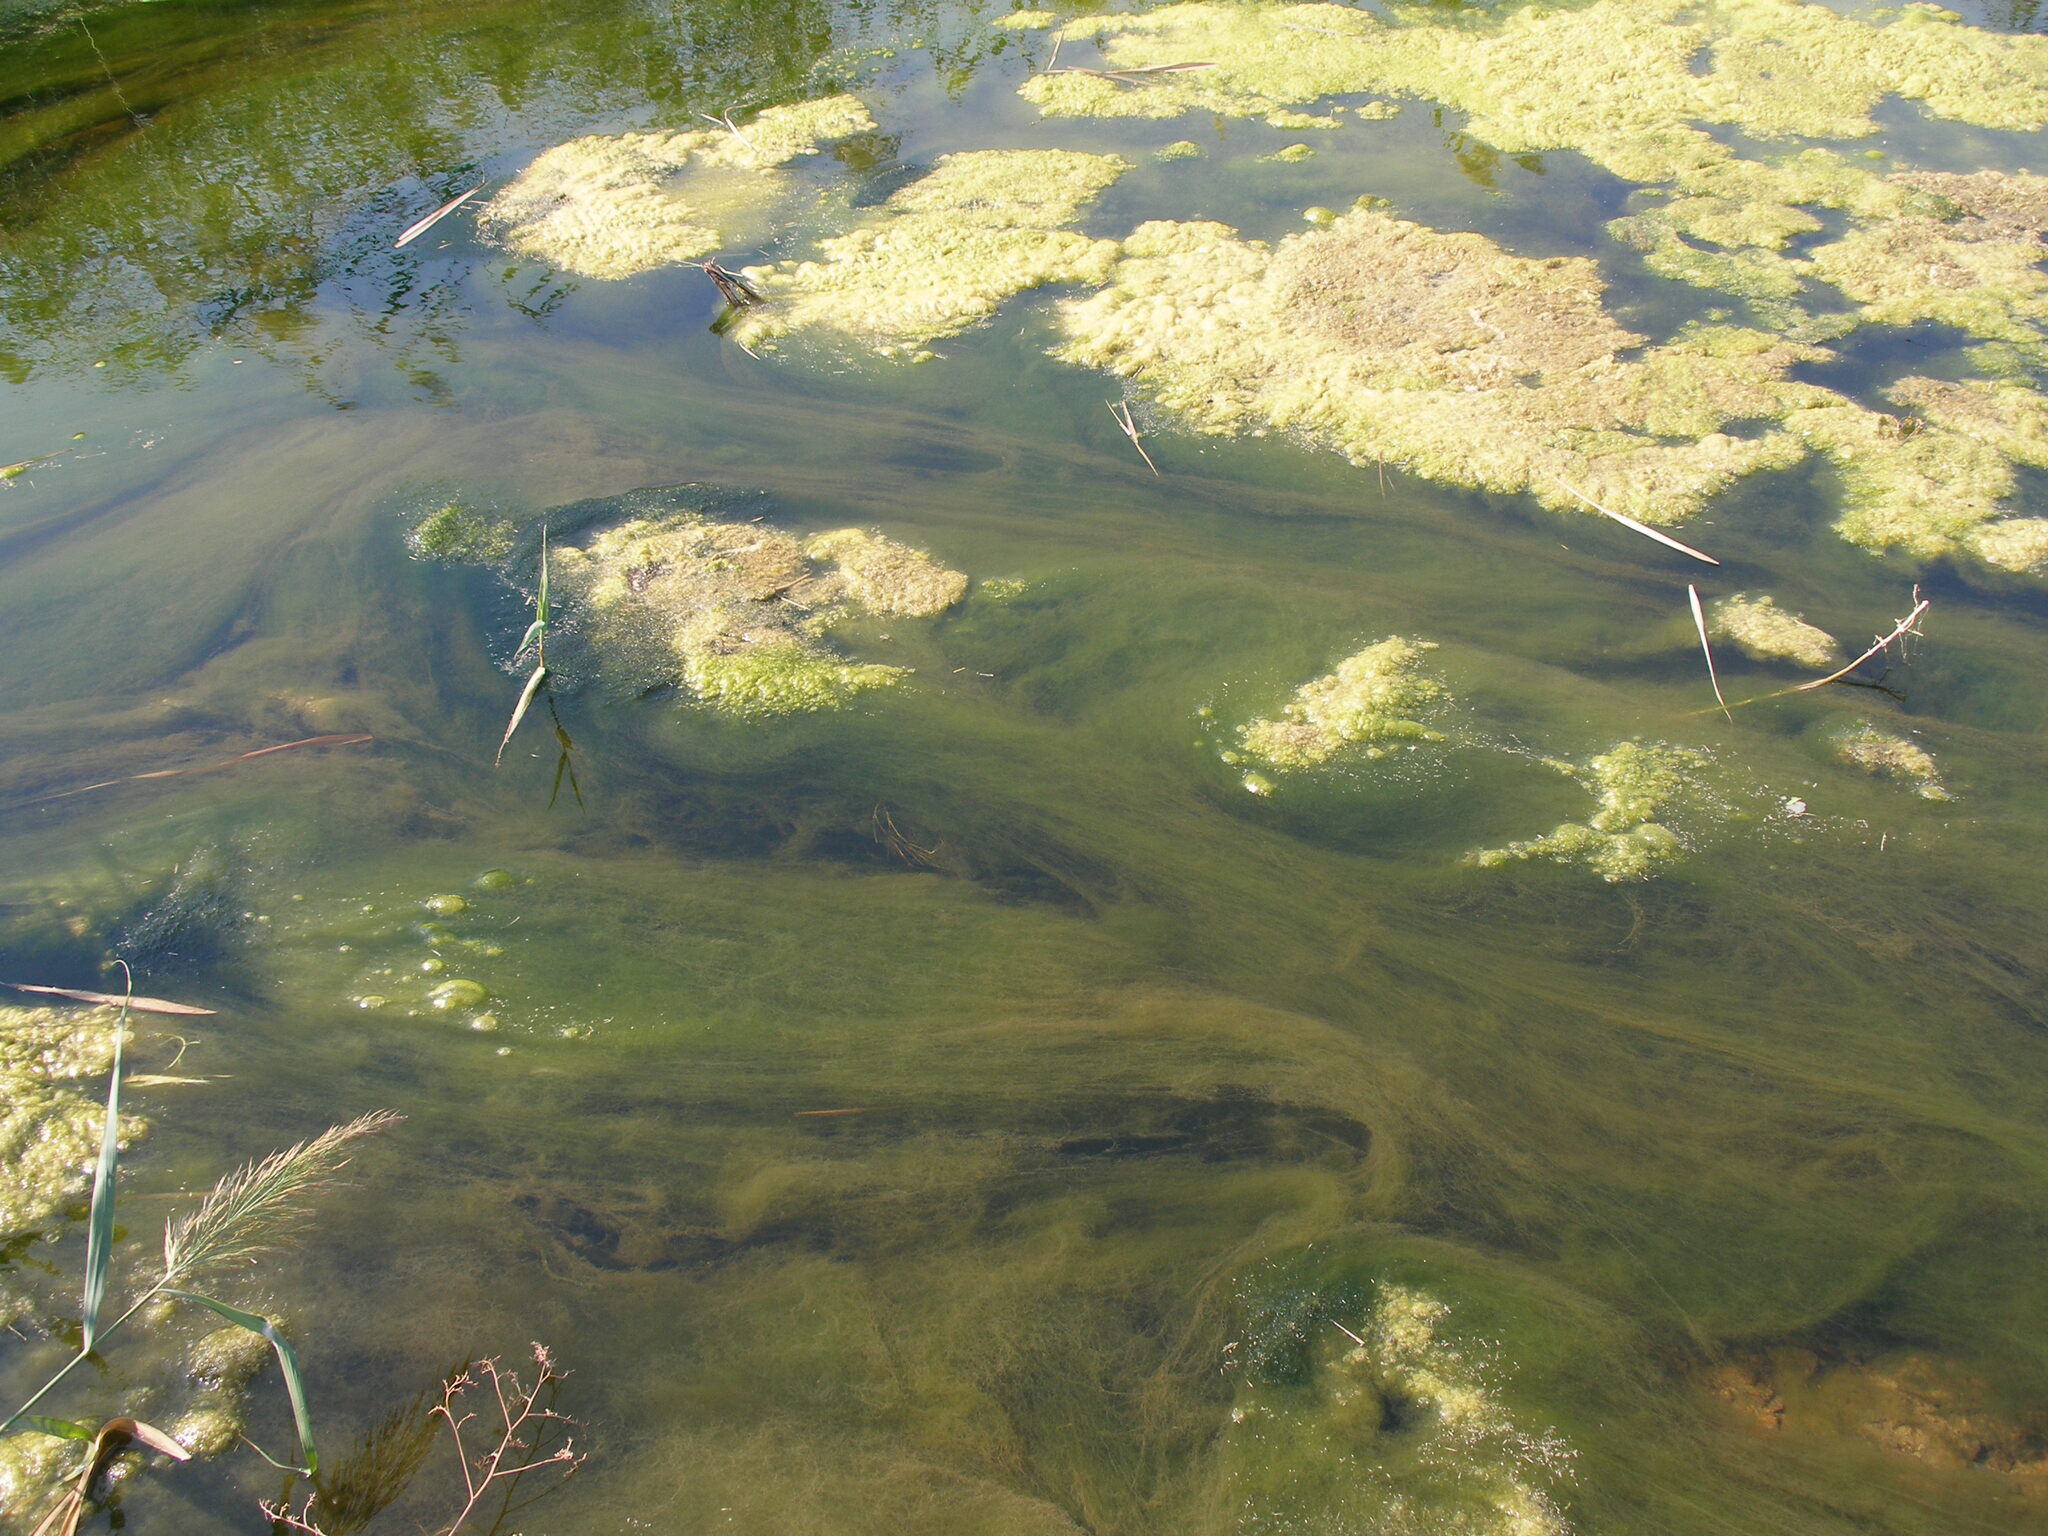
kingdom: Plantae
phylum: Chlorophyta
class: Ulvophyceae
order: Cladophorales
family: Cladophoraceae
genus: Cladophora
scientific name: Cladophora glomerata
